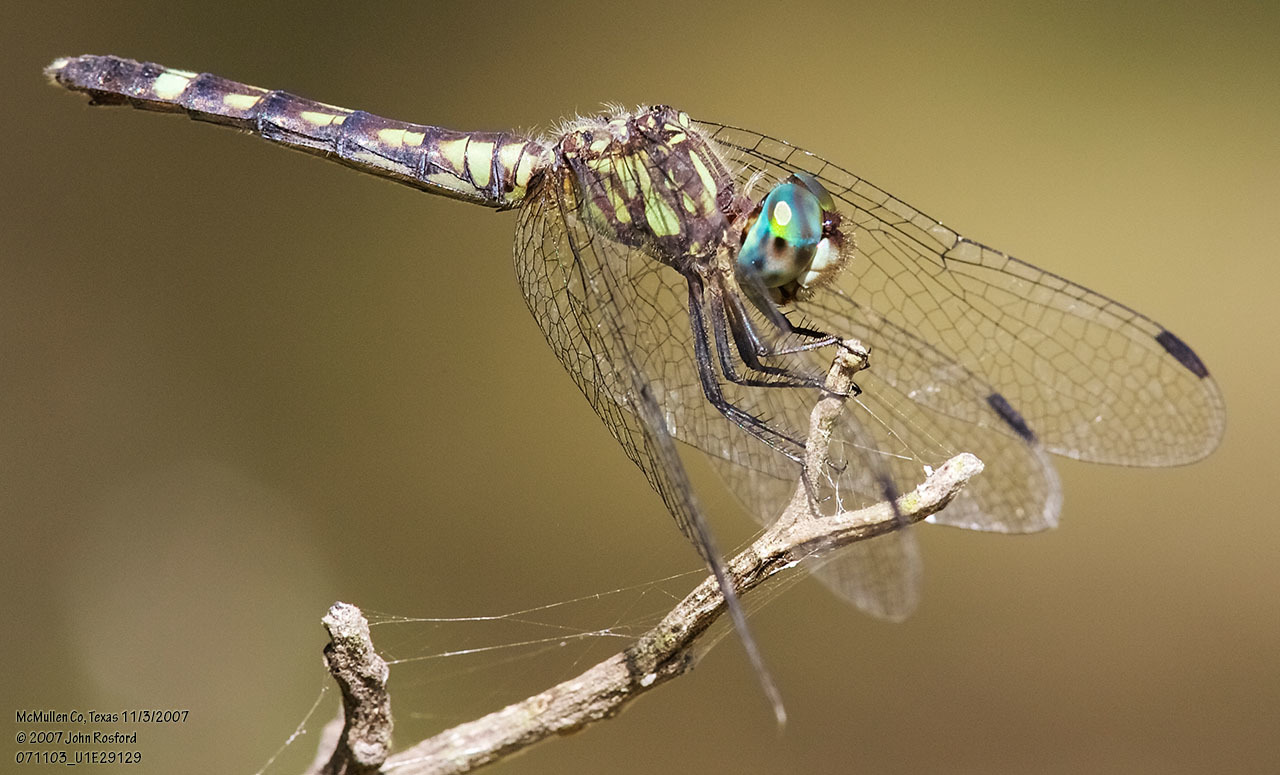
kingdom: Animalia
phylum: Arthropoda
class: Insecta
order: Odonata
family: Libellulidae
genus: Micrathyria
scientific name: Micrathyria hagenii
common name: Thornbush dasher
